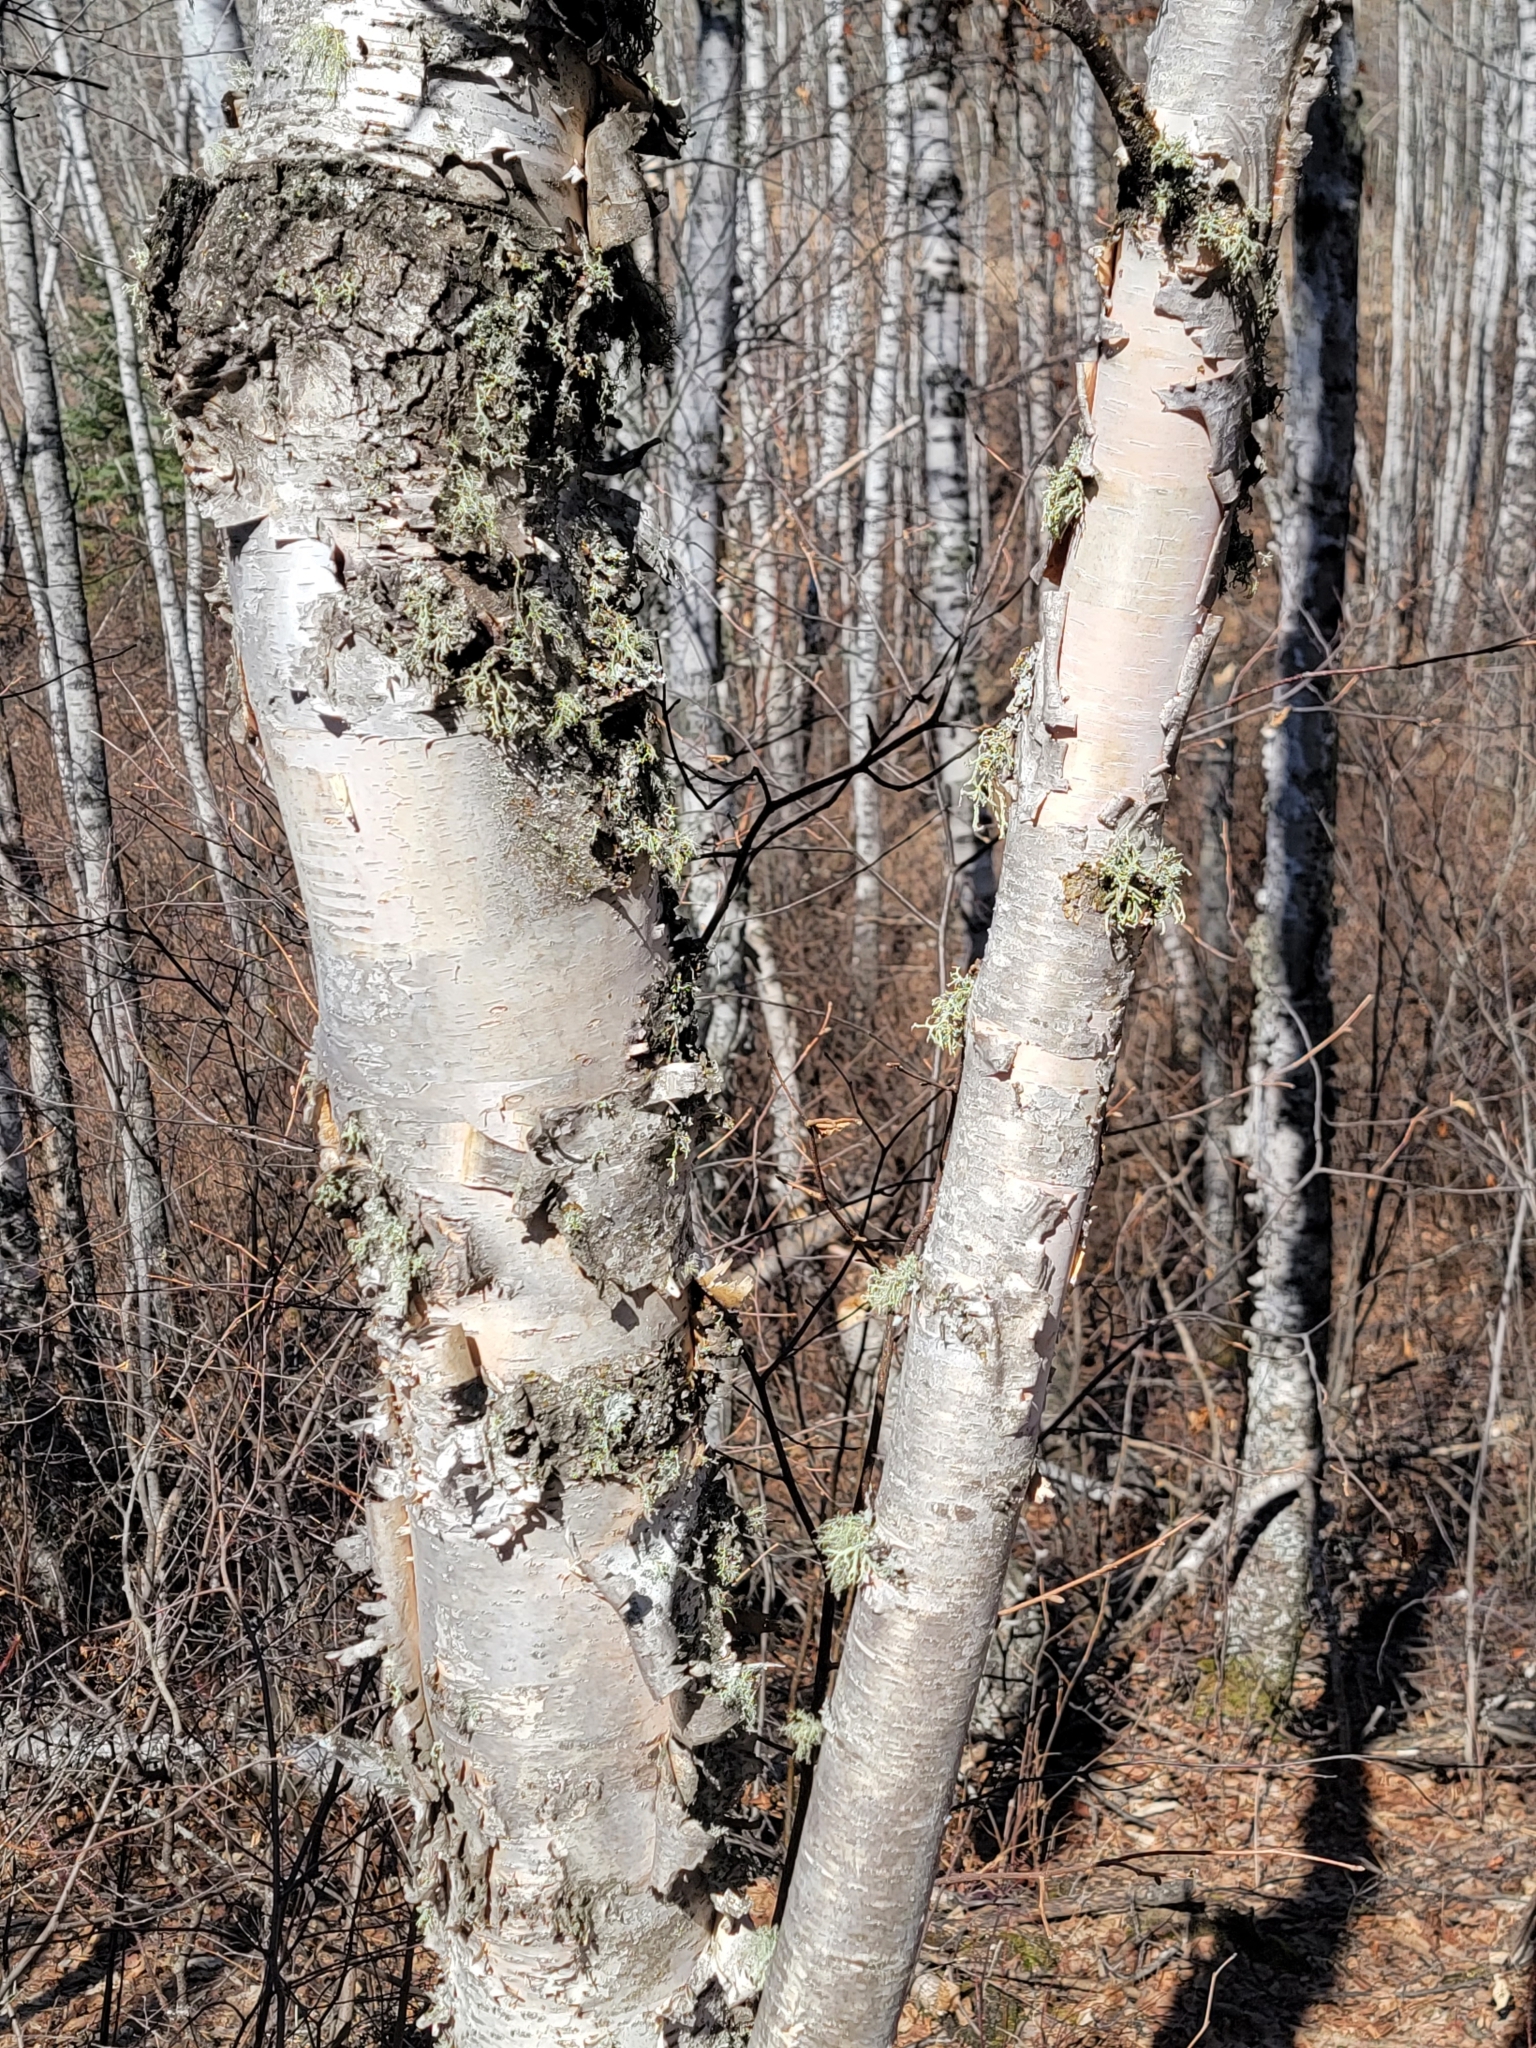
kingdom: Plantae
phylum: Tracheophyta
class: Magnoliopsida
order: Fagales
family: Betulaceae
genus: Betula
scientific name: Betula papyrifera
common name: Paper birch
